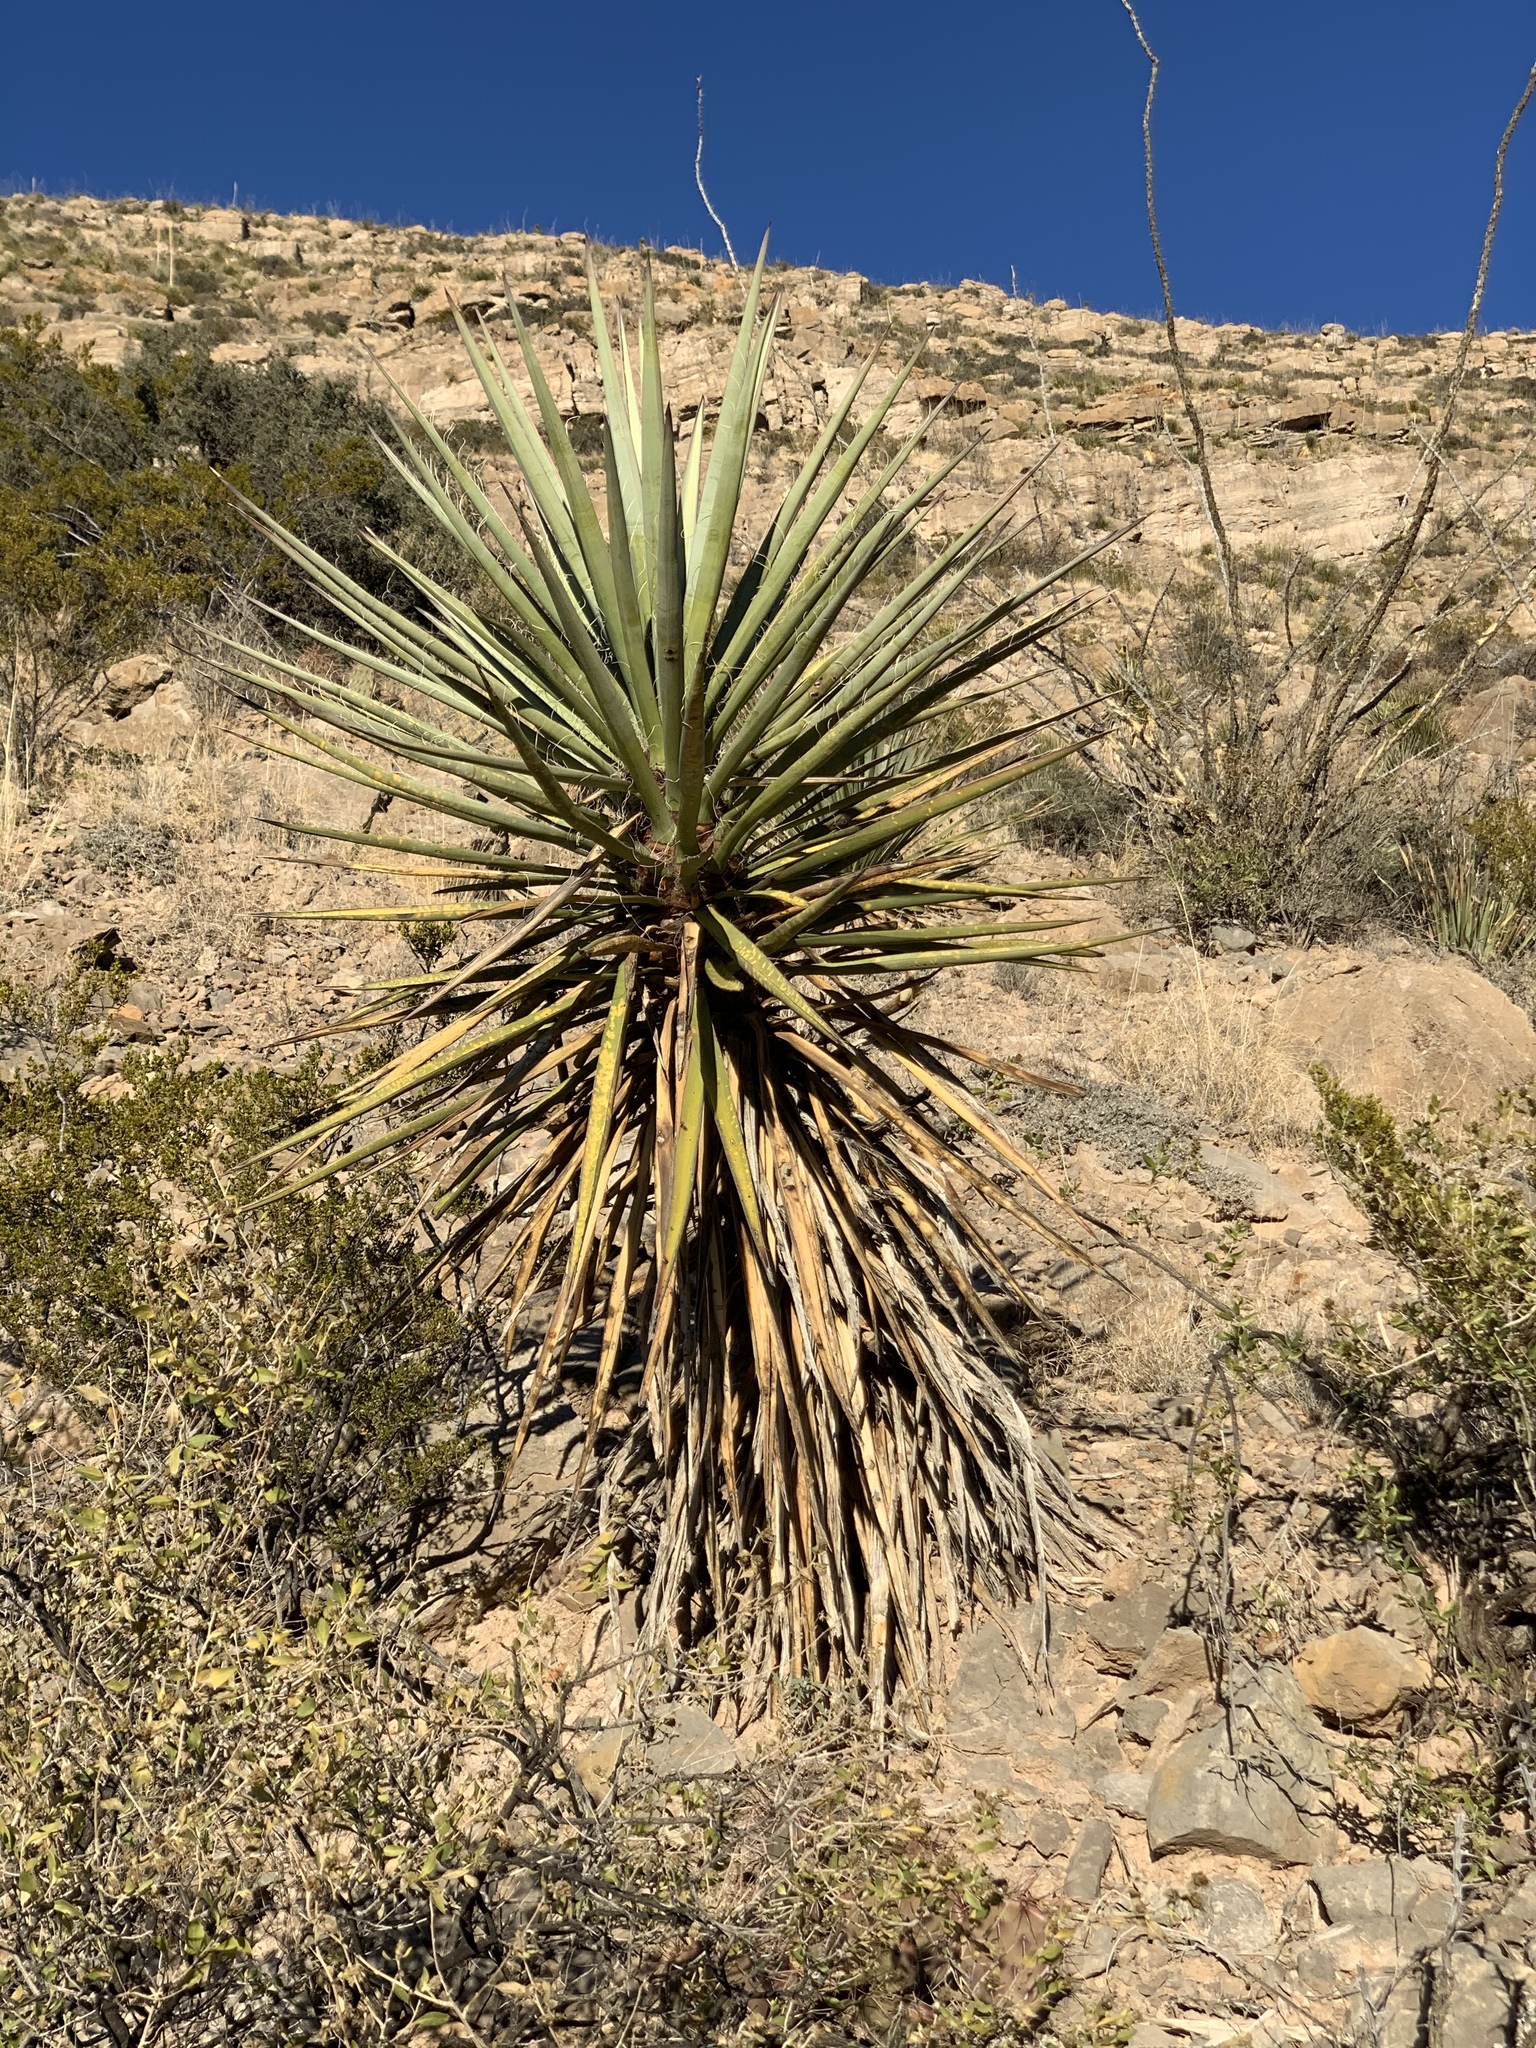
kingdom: Plantae
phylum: Tracheophyta
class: Liliopsida
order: Asparagales
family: Asparagaceae
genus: Yucca
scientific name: Yucca treculiana
